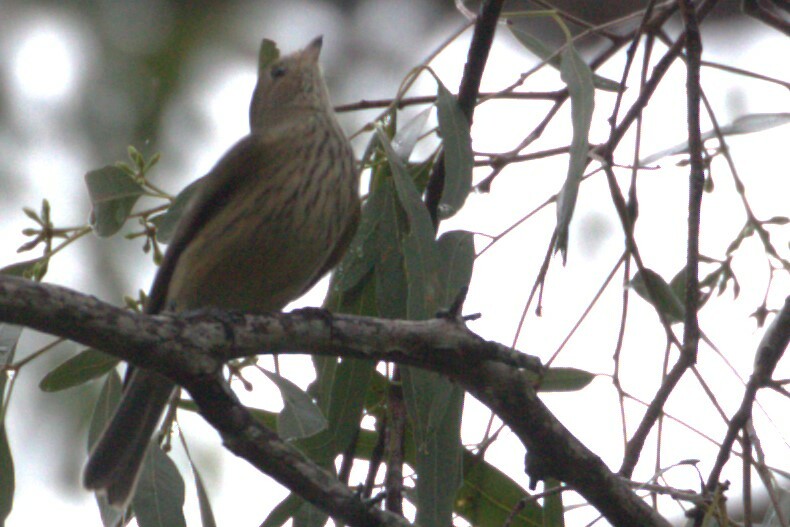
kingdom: Animalia
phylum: Chordata
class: Aves
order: Passeriformes
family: Pachycephalidae
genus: Pachycephala
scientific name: Pachycephala rufiventris
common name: Rufous whistler
